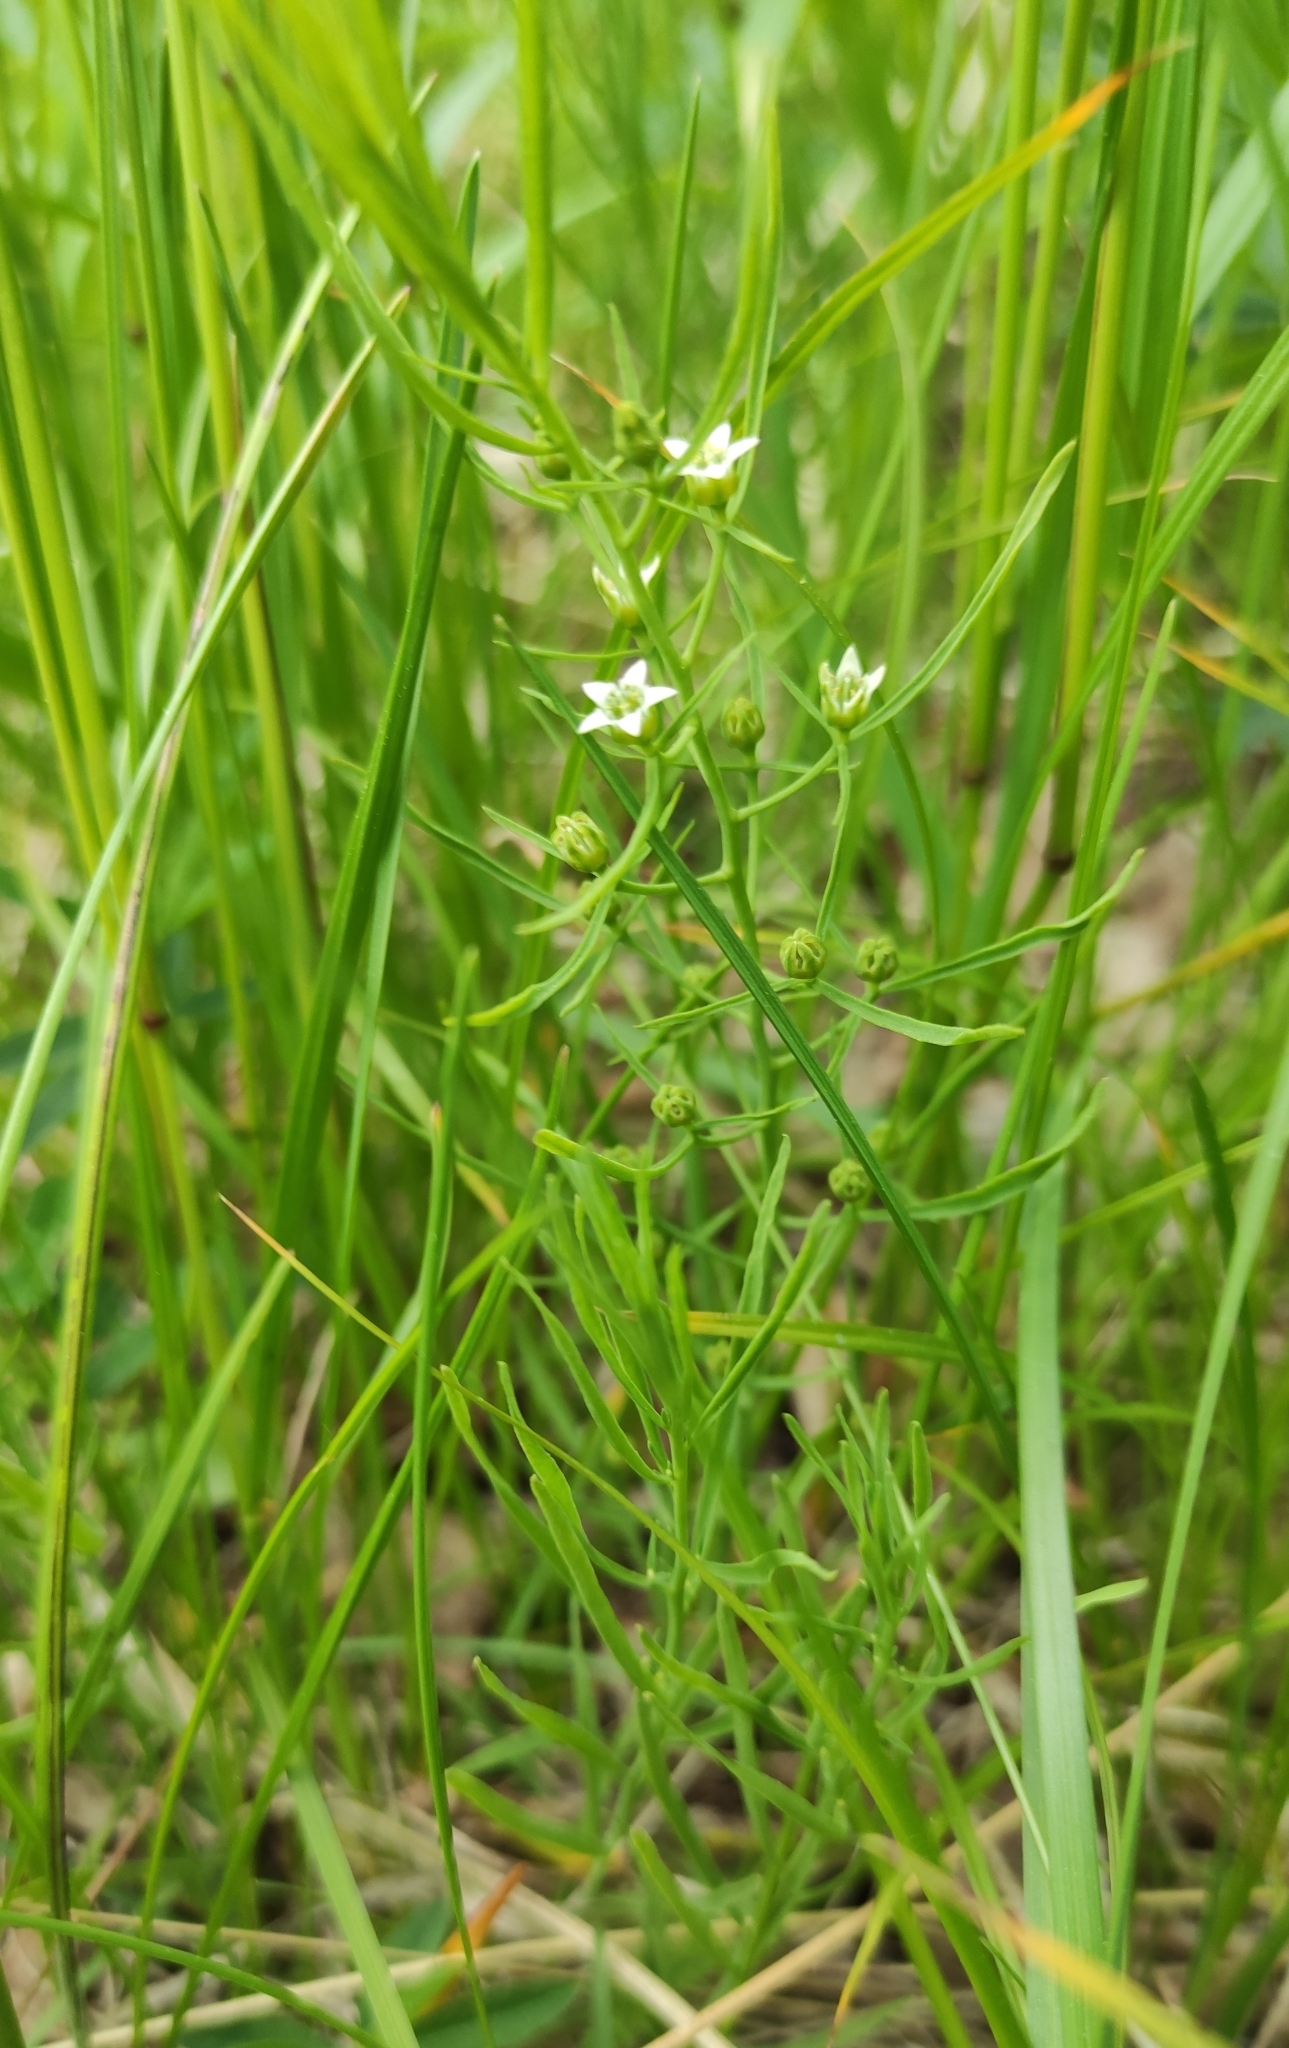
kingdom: Plantae
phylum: Tracheophyta
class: Magnoliopsida
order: Santalales
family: Thesiaceae
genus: Thesium
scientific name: Thesium repens
